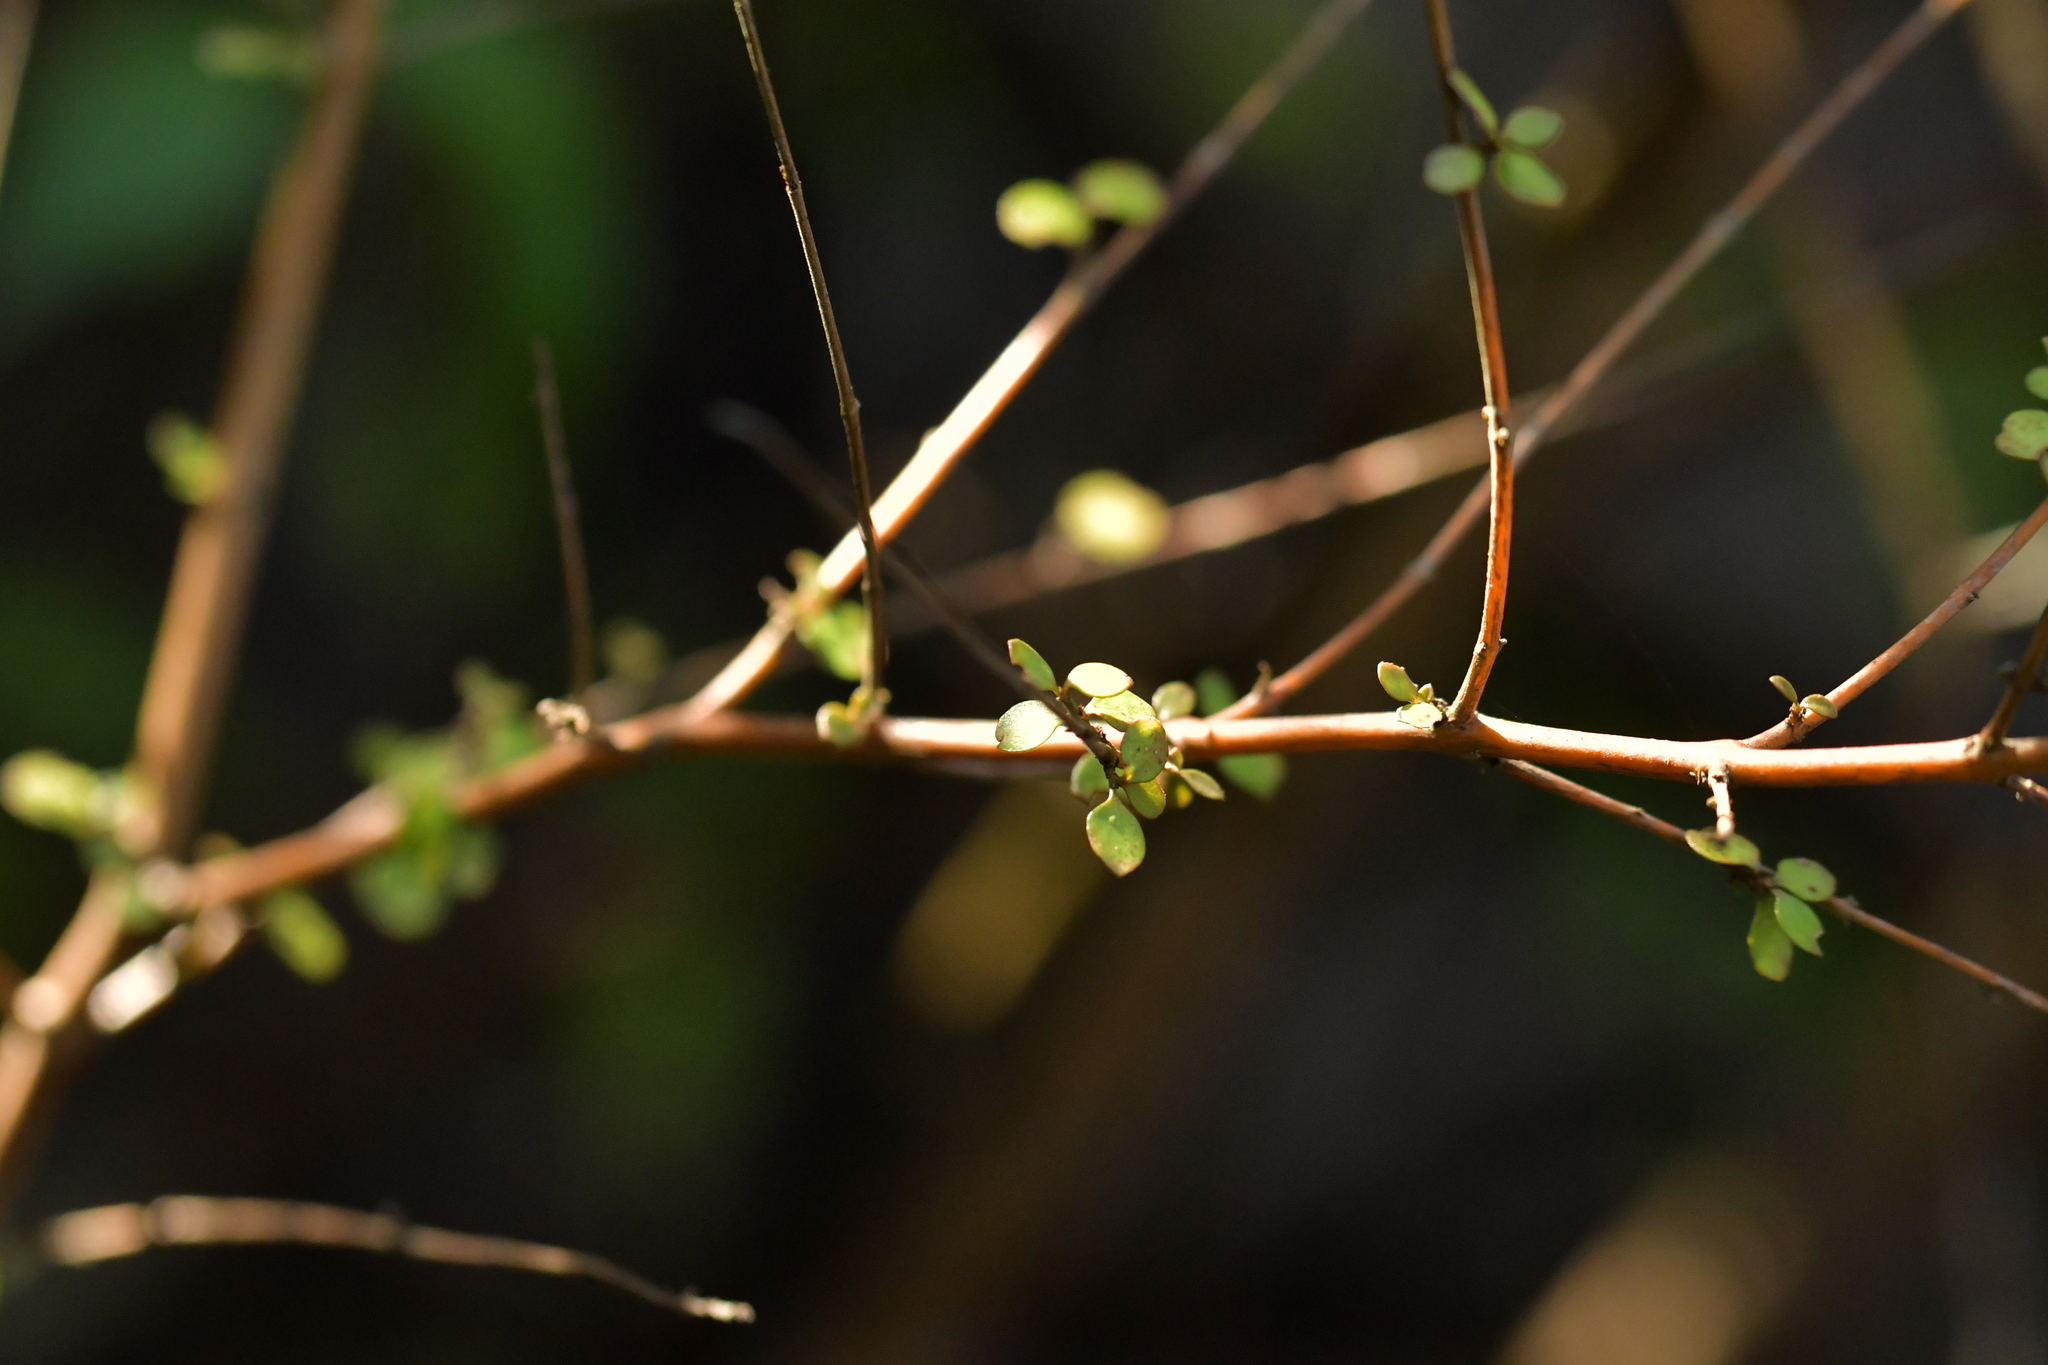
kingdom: Plantae
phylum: Tracheophyta
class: Magnoliopsida
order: Gentianales
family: Rubiaceae
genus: Coprosma
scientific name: Coprosma rhamnoides
